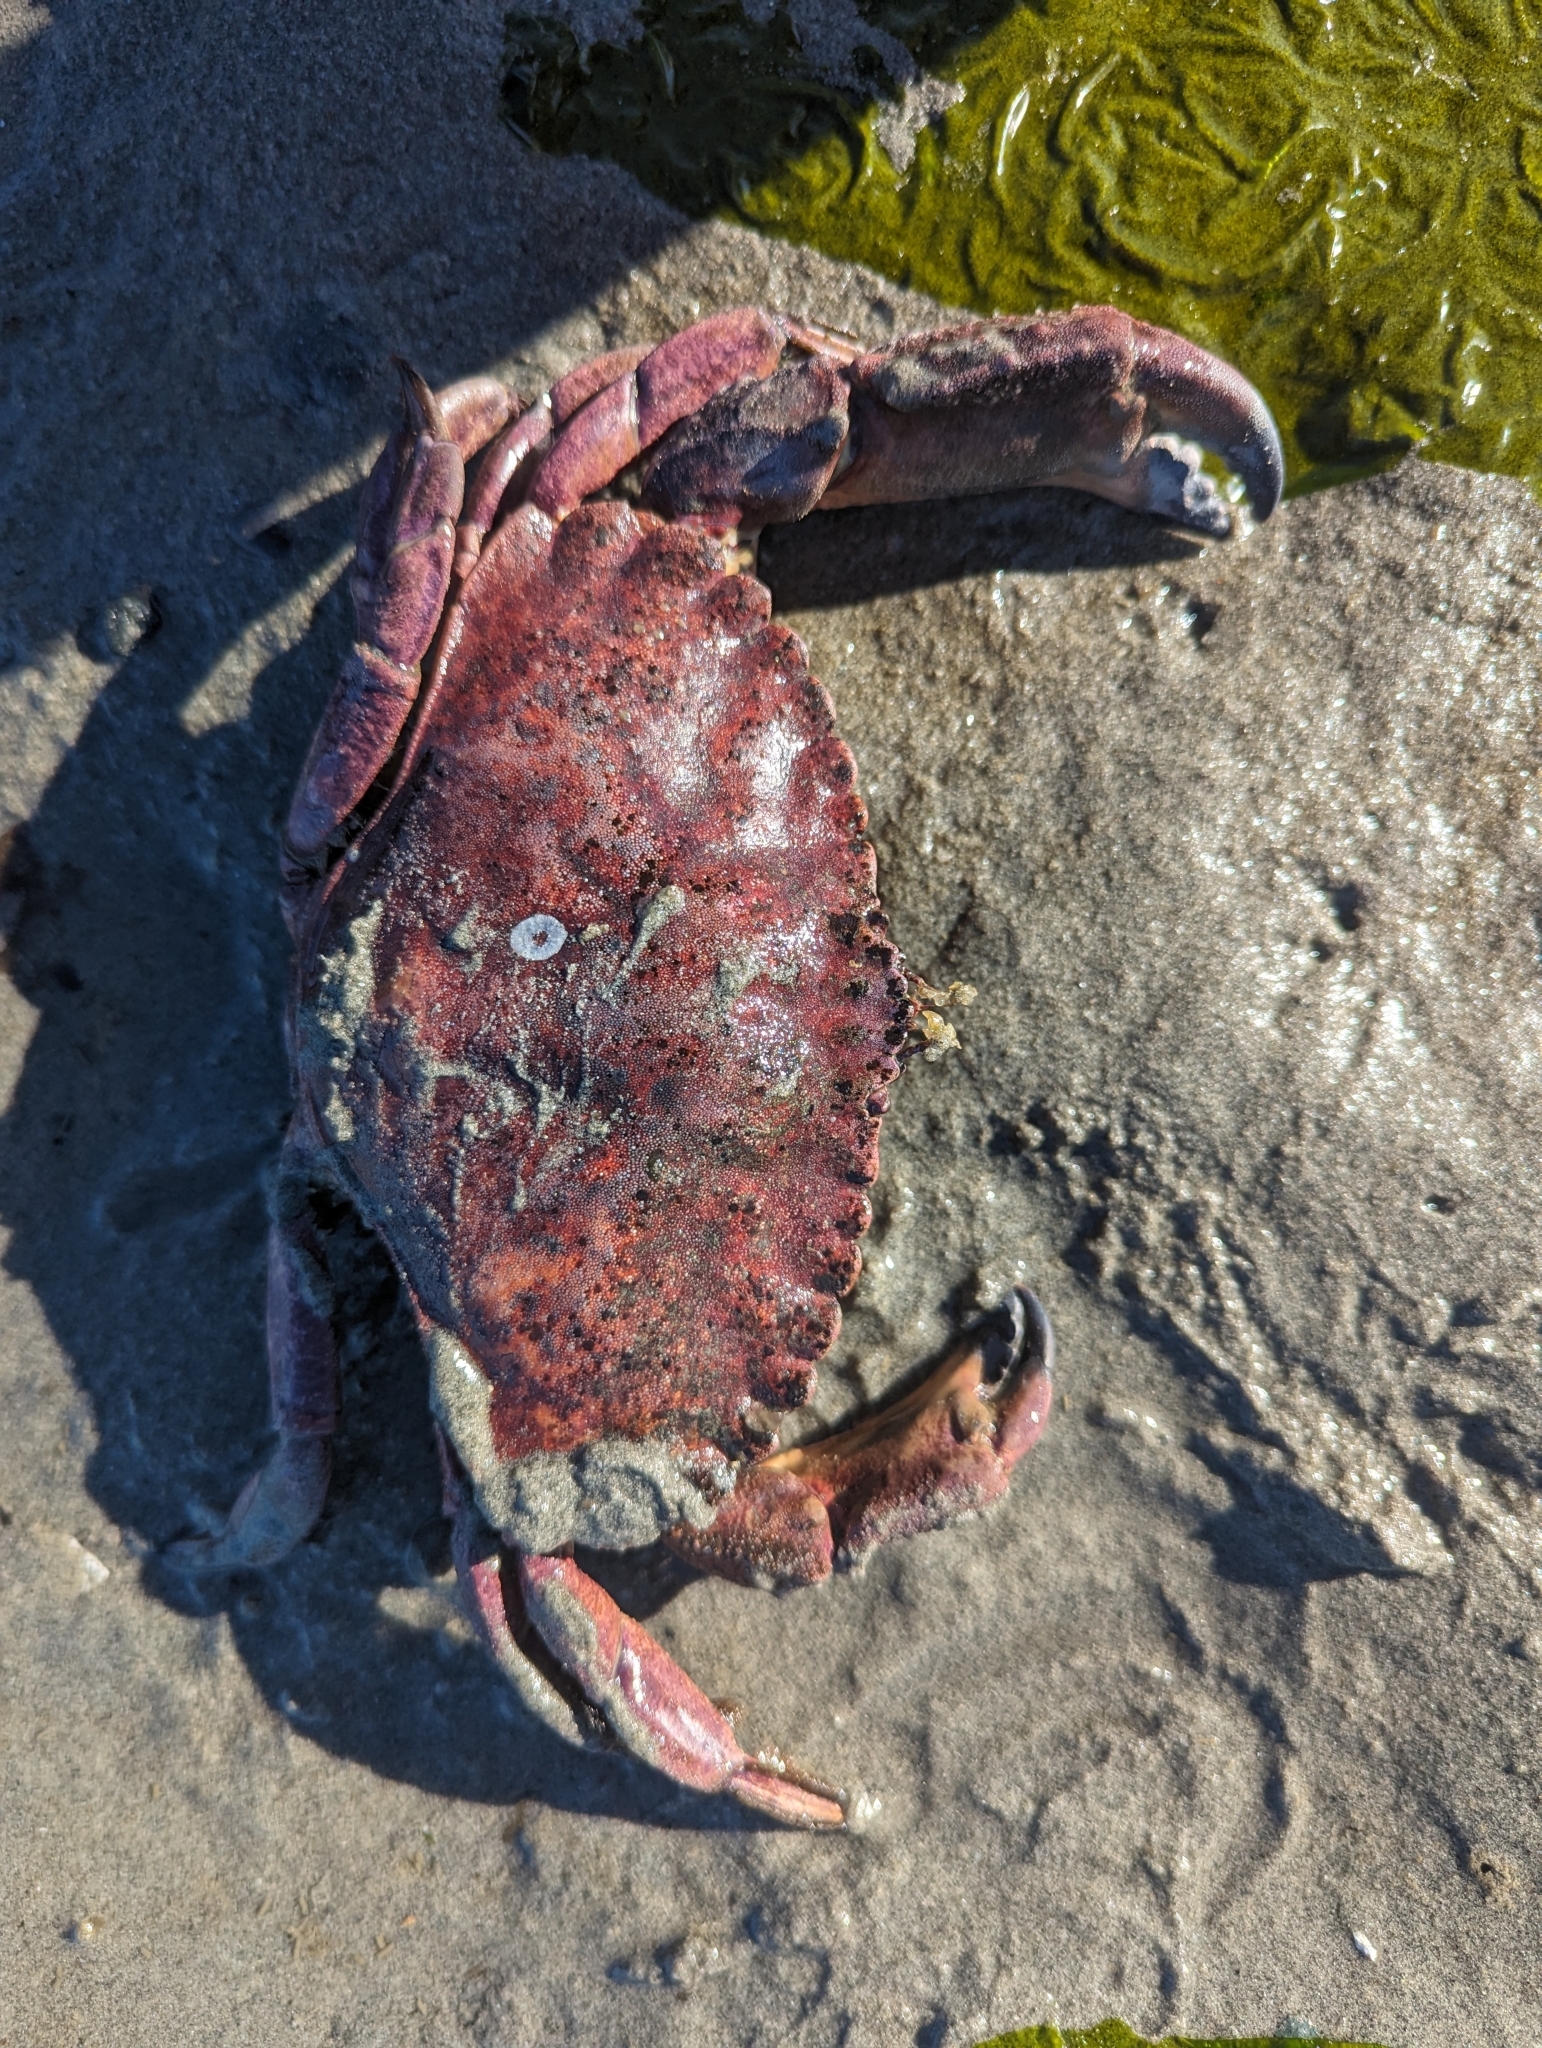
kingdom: Animalia
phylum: Arthropoda
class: Malacostraca
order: Decapoda
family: Cancridae
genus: Cancer
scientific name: Cancer productus
